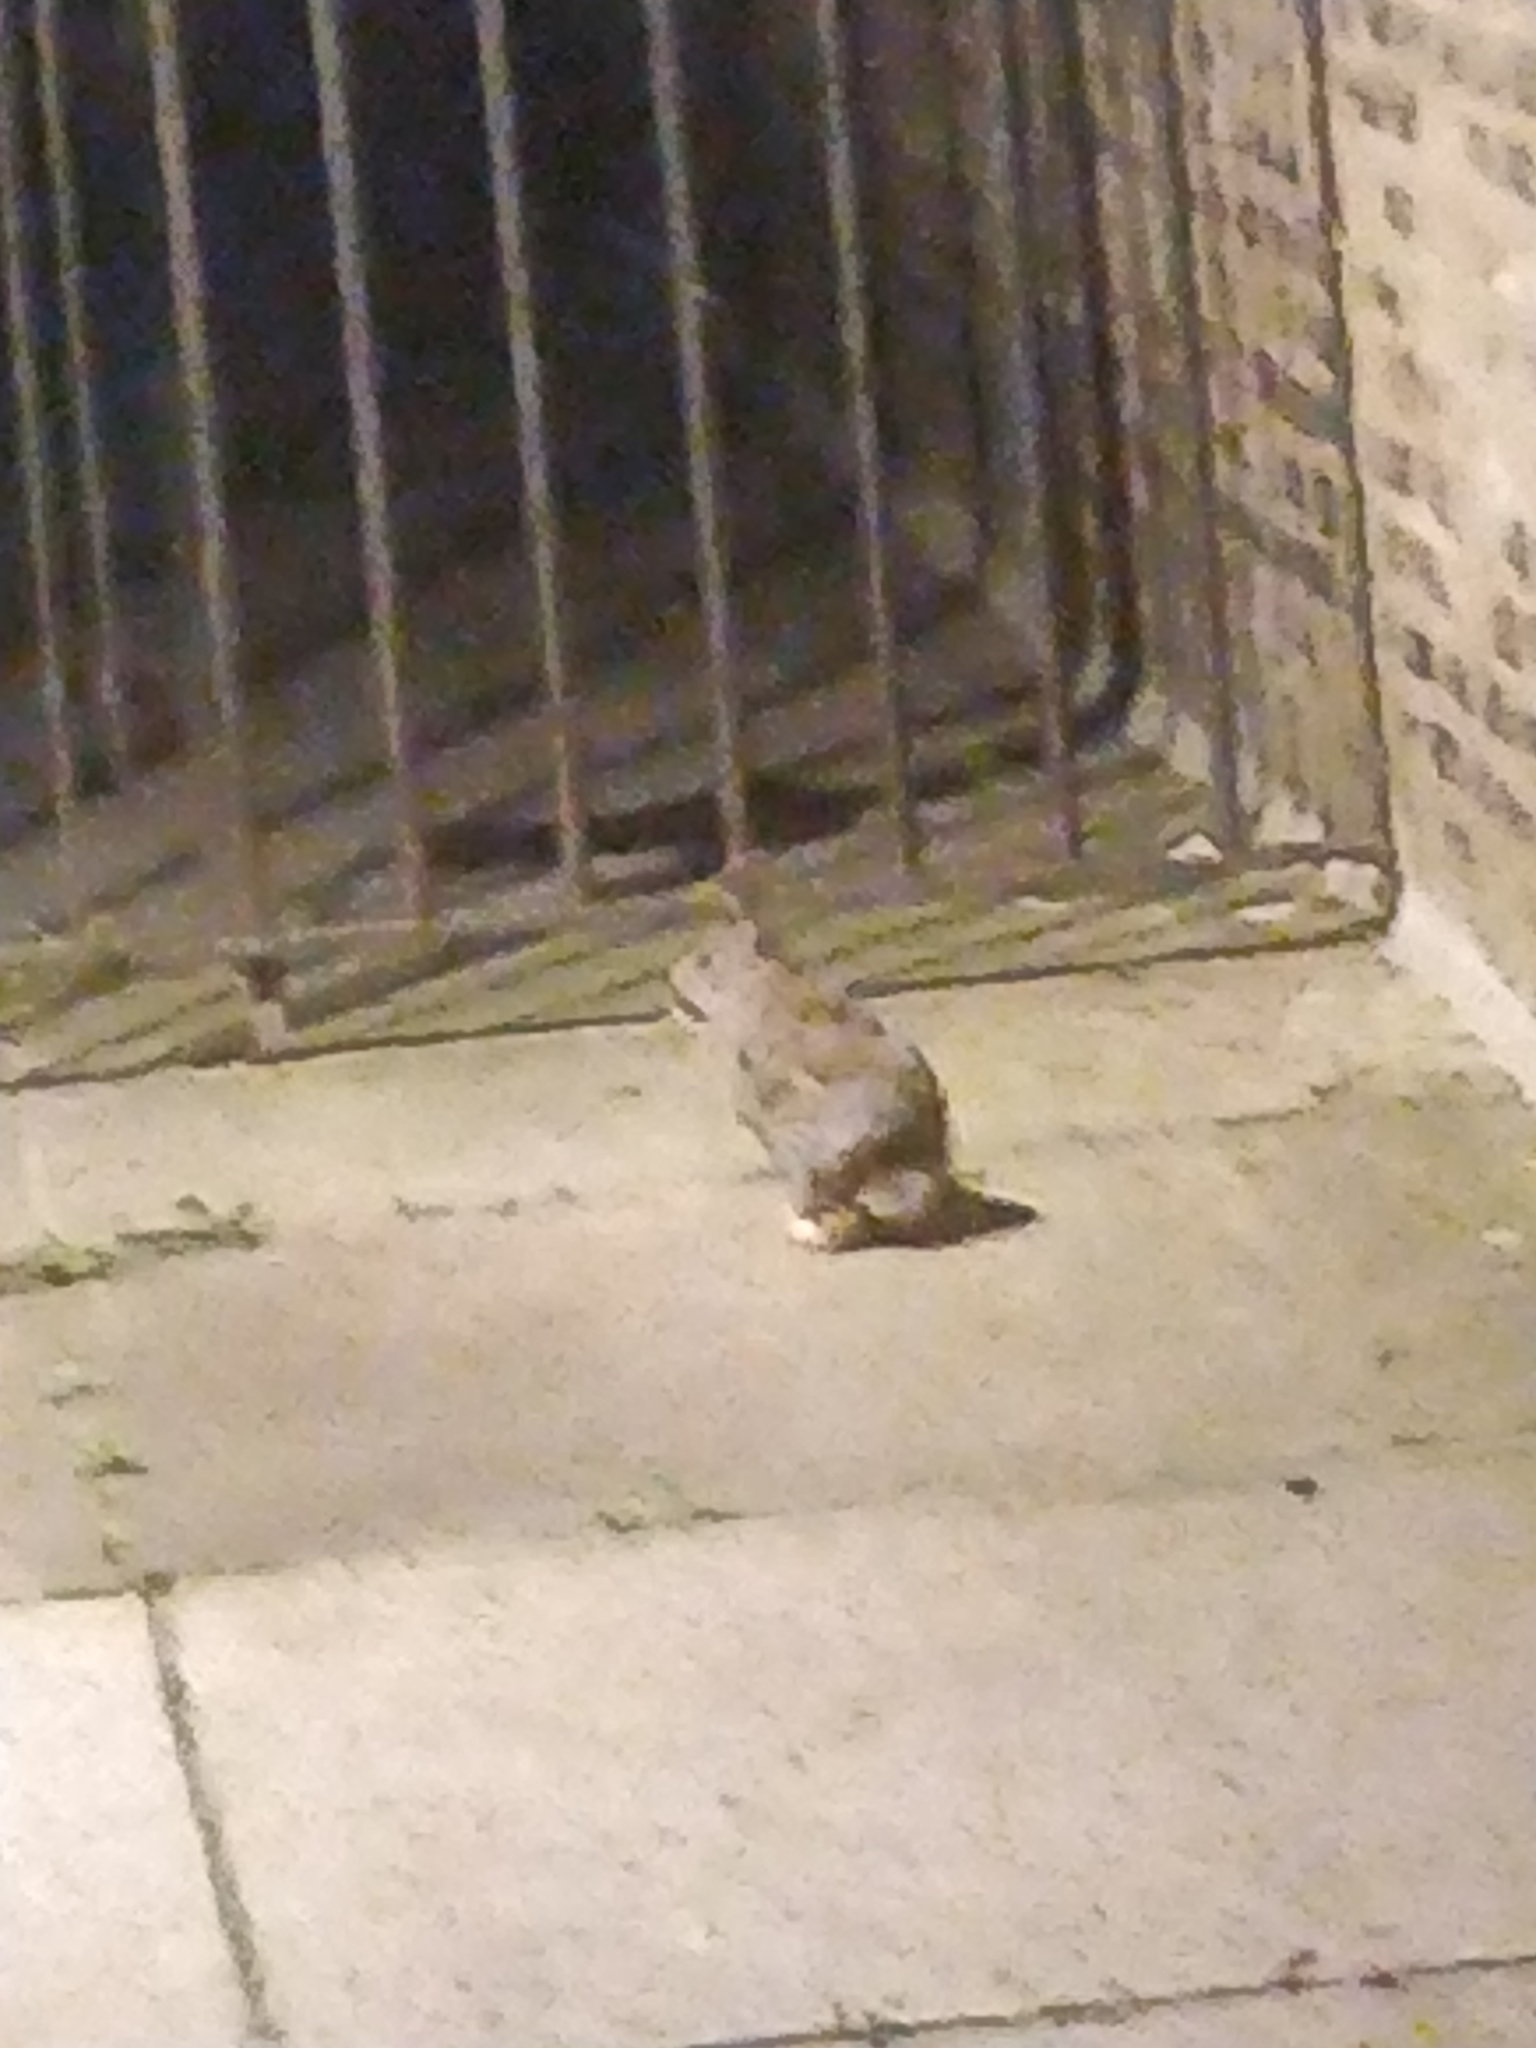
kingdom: Animalia
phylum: Chordata
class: Mammalia
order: Lagomorpha
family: Leporidae
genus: Sylvilagus
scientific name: Sylvilagus floridanus
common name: Eastern cottontail
